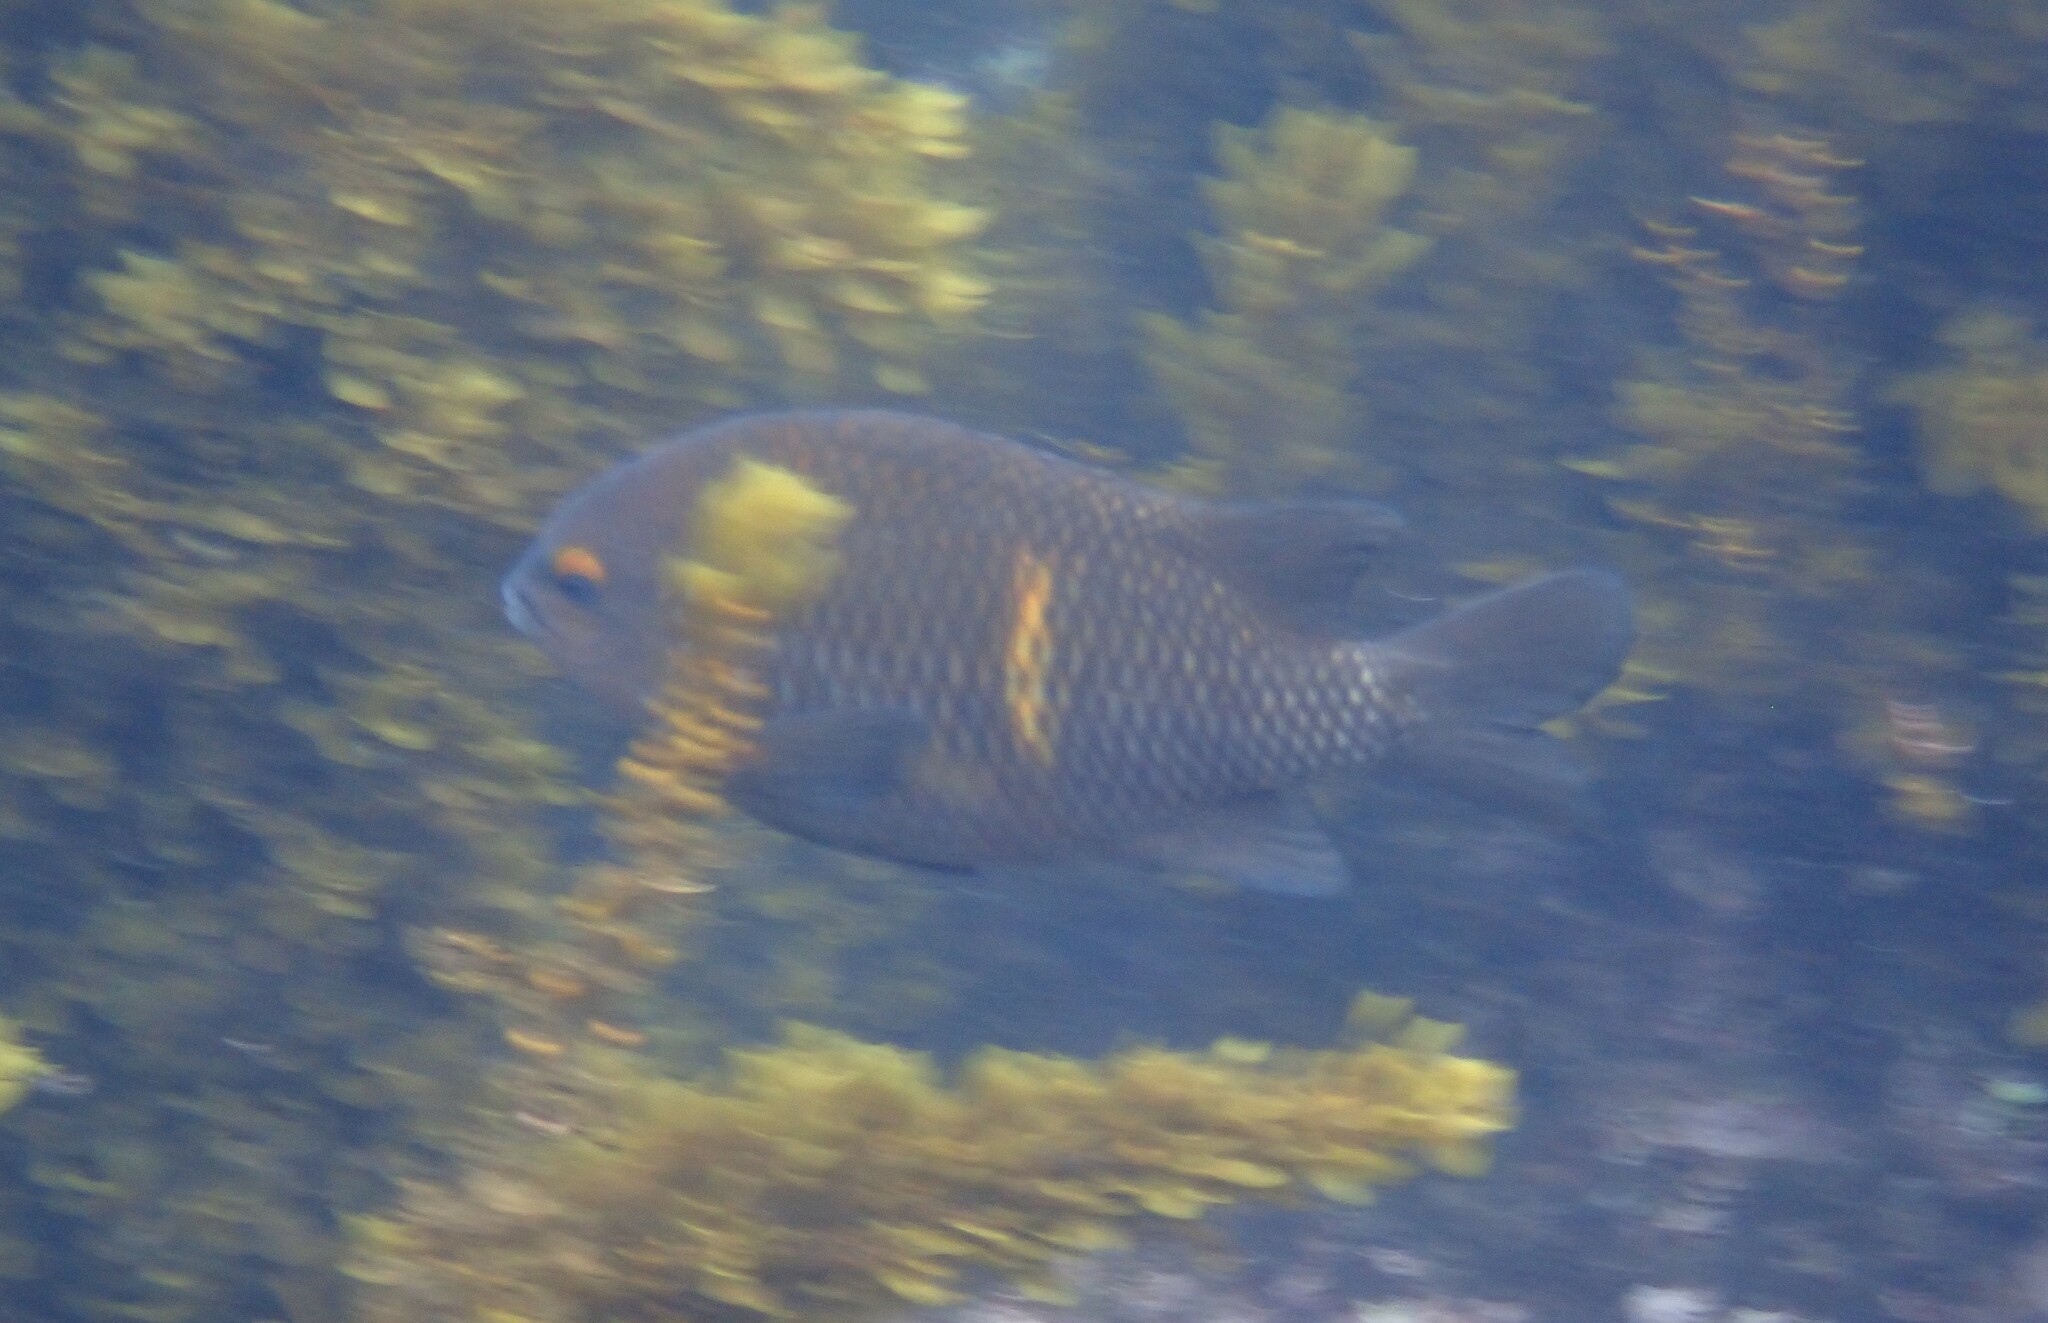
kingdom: Animalia
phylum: Chordata
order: Perciformes
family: Pomacentridae
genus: Stegastes
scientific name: Stegastes beebei
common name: Galapagos ringtail damselfish
